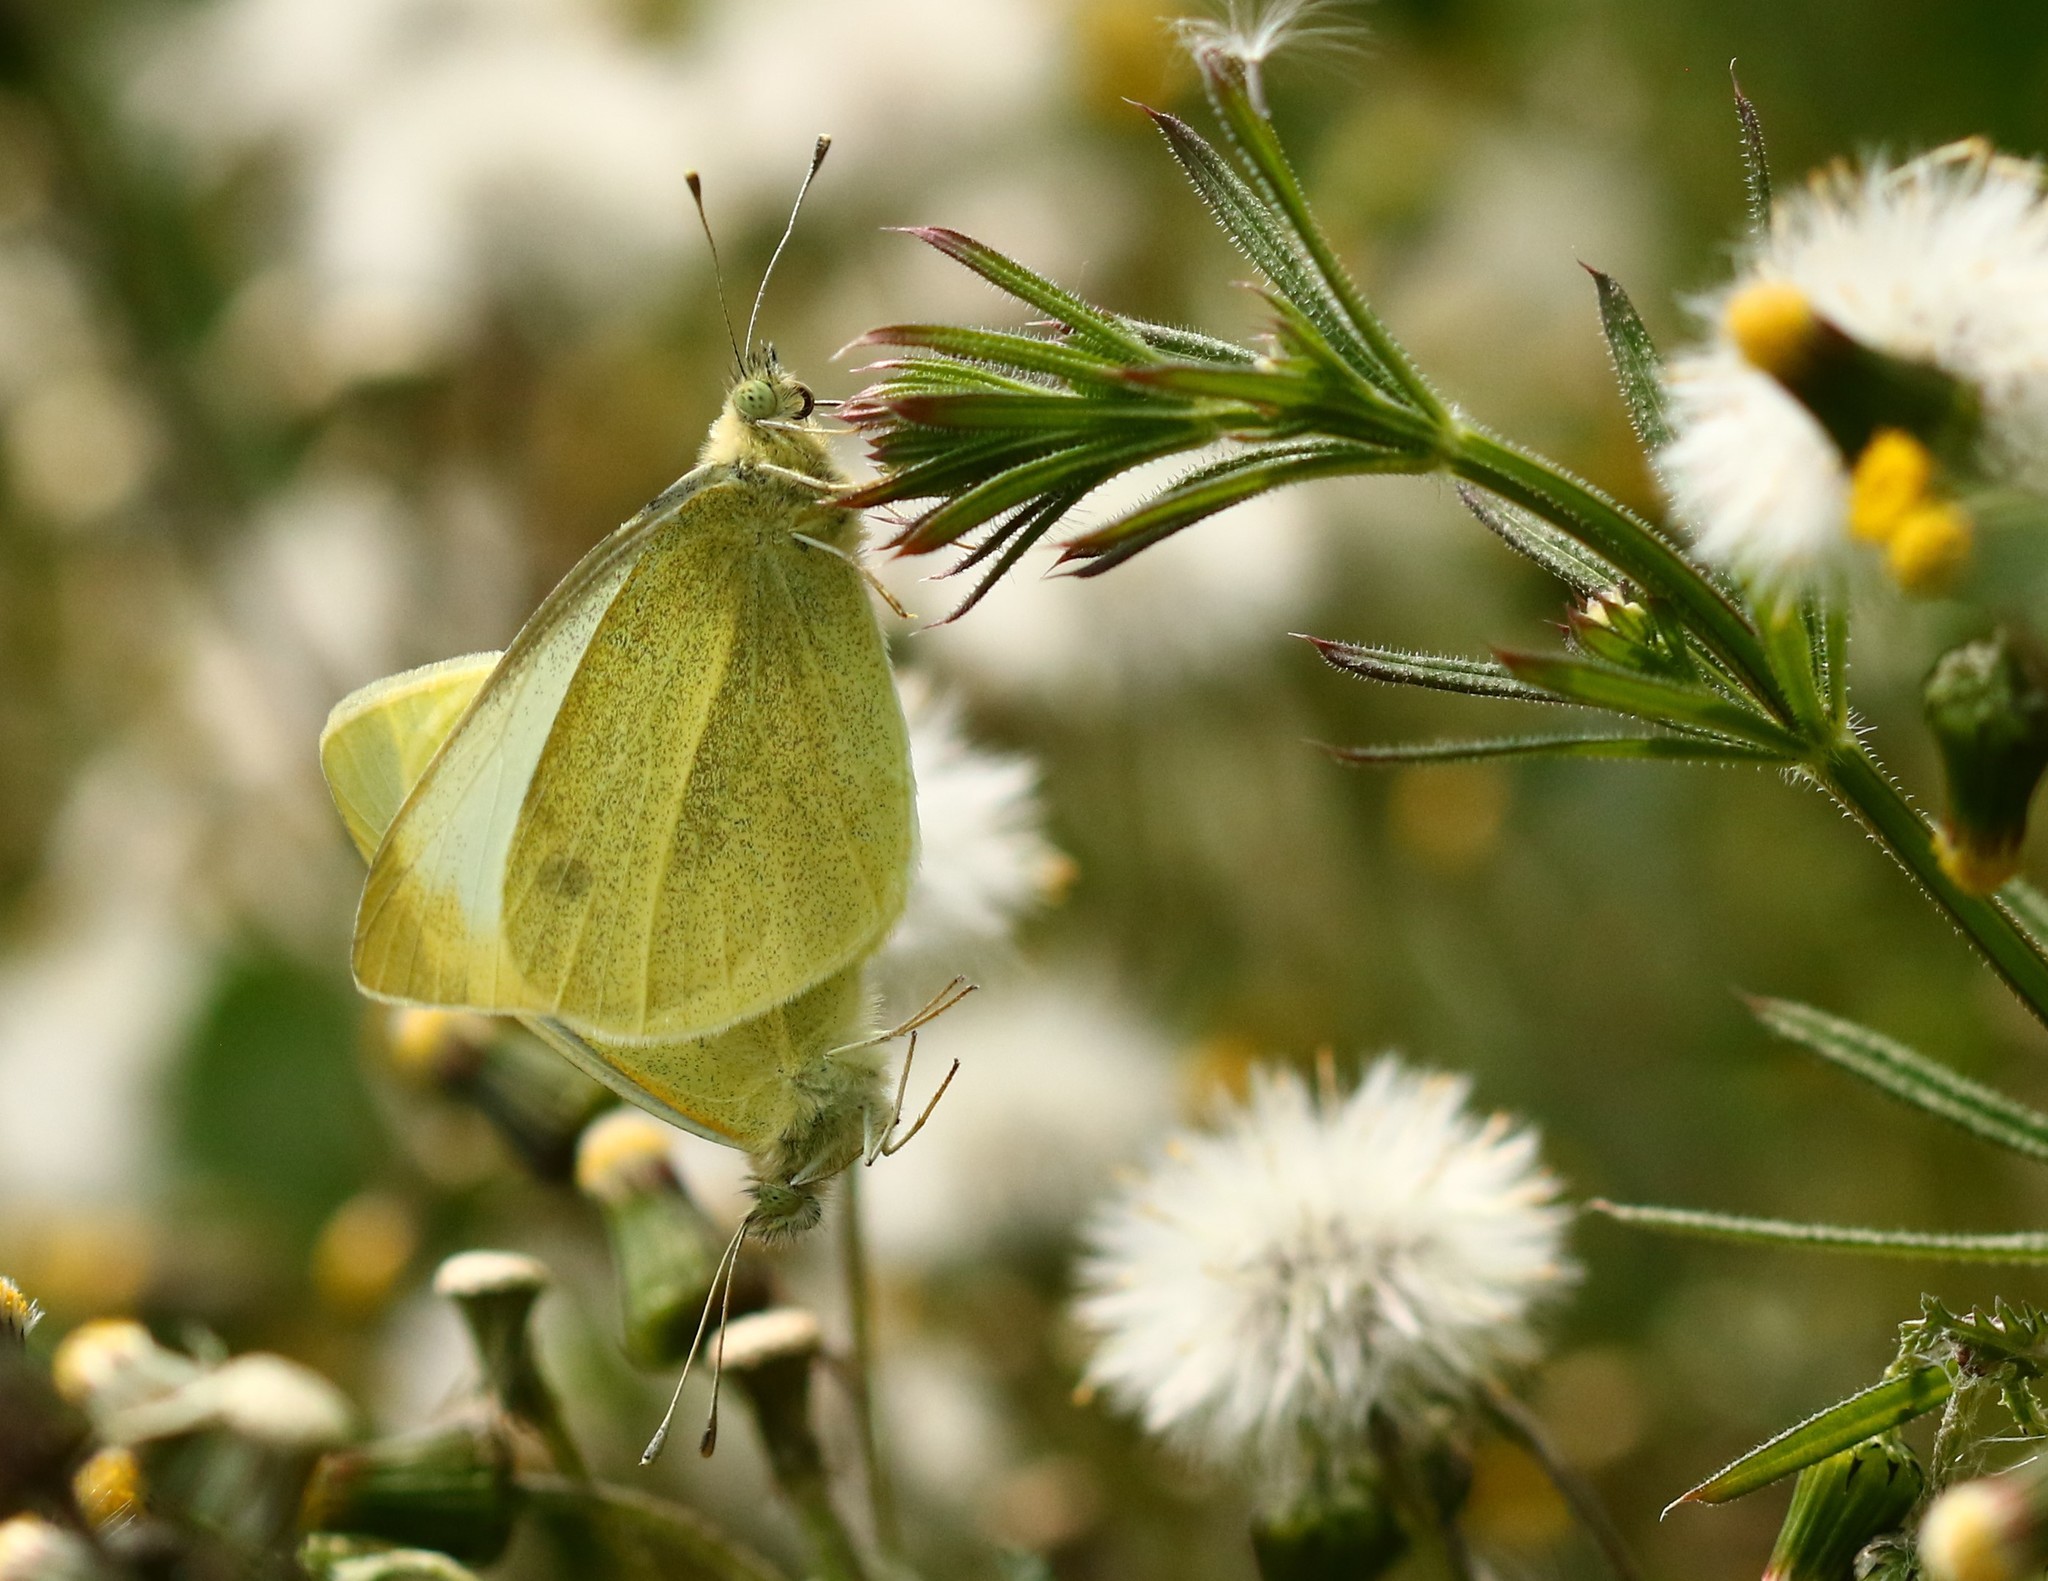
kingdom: Animalia
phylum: Arthropoda
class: Insecta
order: Lepidoptera
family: Pieridae
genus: Pieris
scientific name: Pieris rapae
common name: Small white
